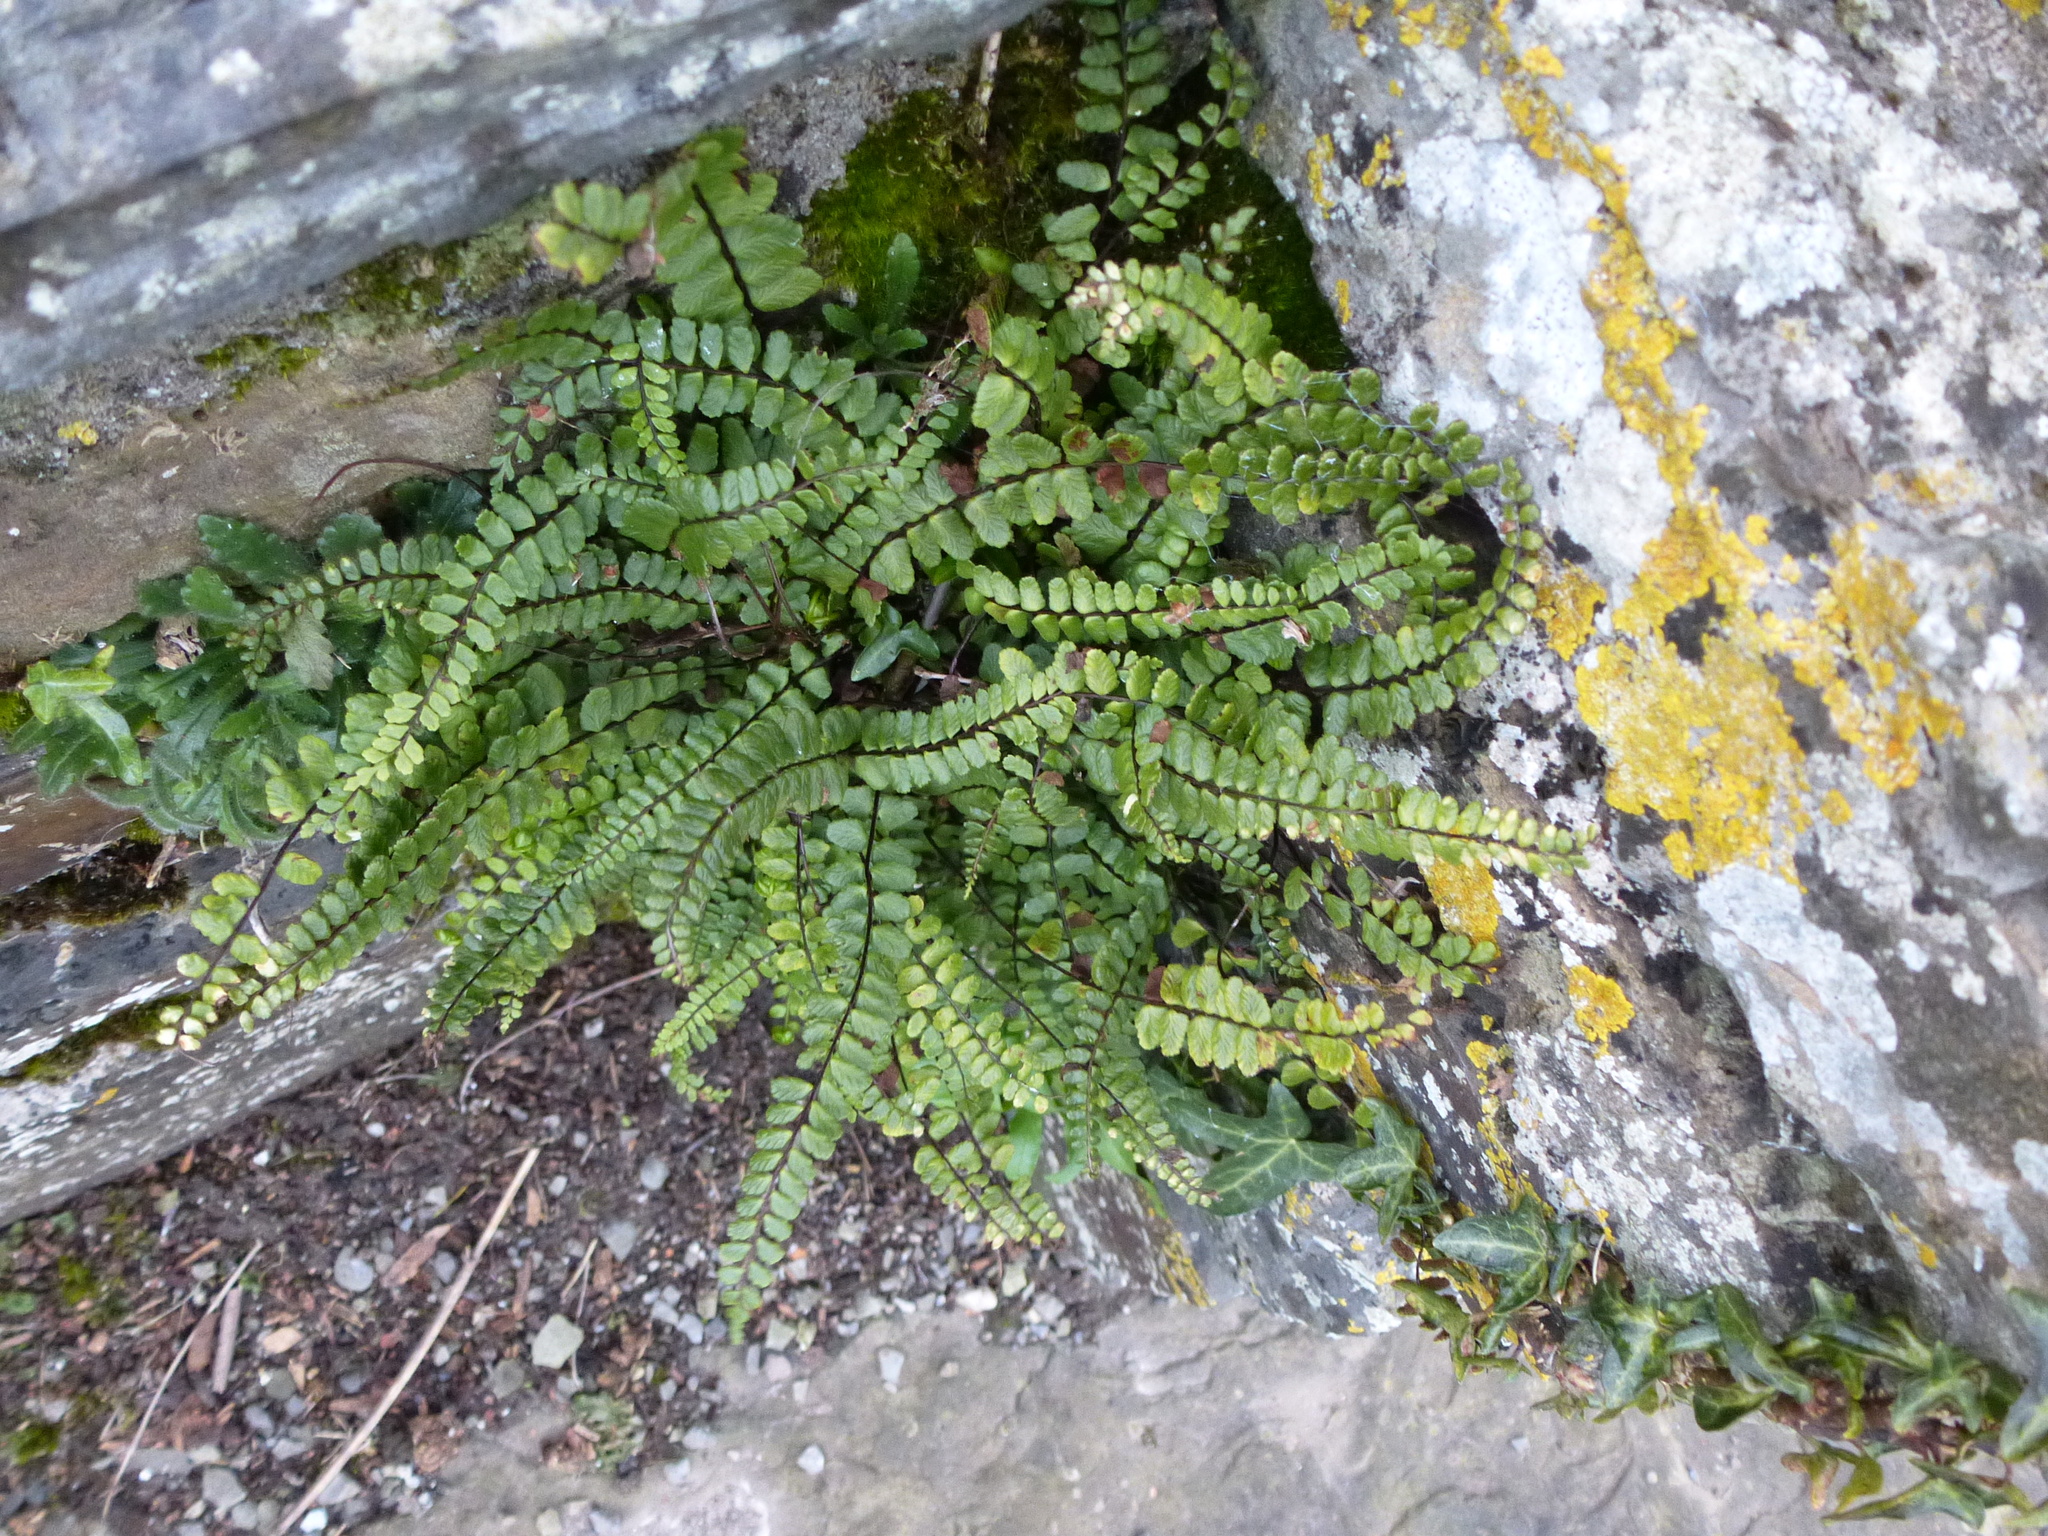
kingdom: Plantae
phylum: Tracheophyta
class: Polypodiopsida
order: Polypodiales
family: Aspleniaceae
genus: Asplenium
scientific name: Asplenium trichomanes
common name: Maidenhair spleenwort
